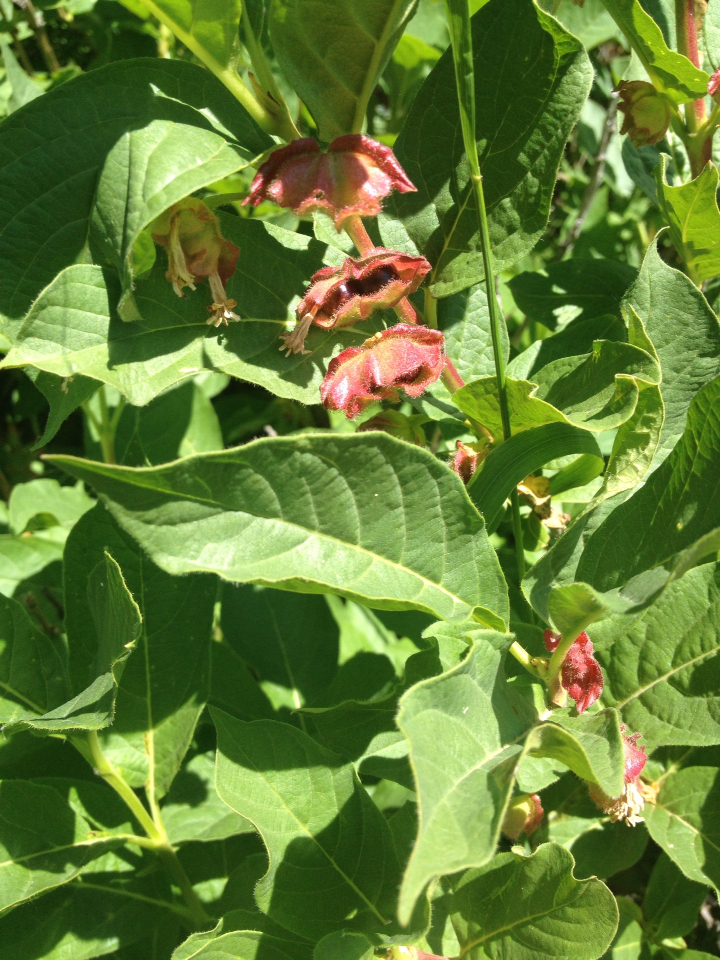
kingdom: Plantae
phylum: Tracheophyta
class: Magnoliopsida
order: Dipsacales
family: Caprifoliaceae
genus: Lonicera
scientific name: Lonicera involucrata
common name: Californian honeysuckle
